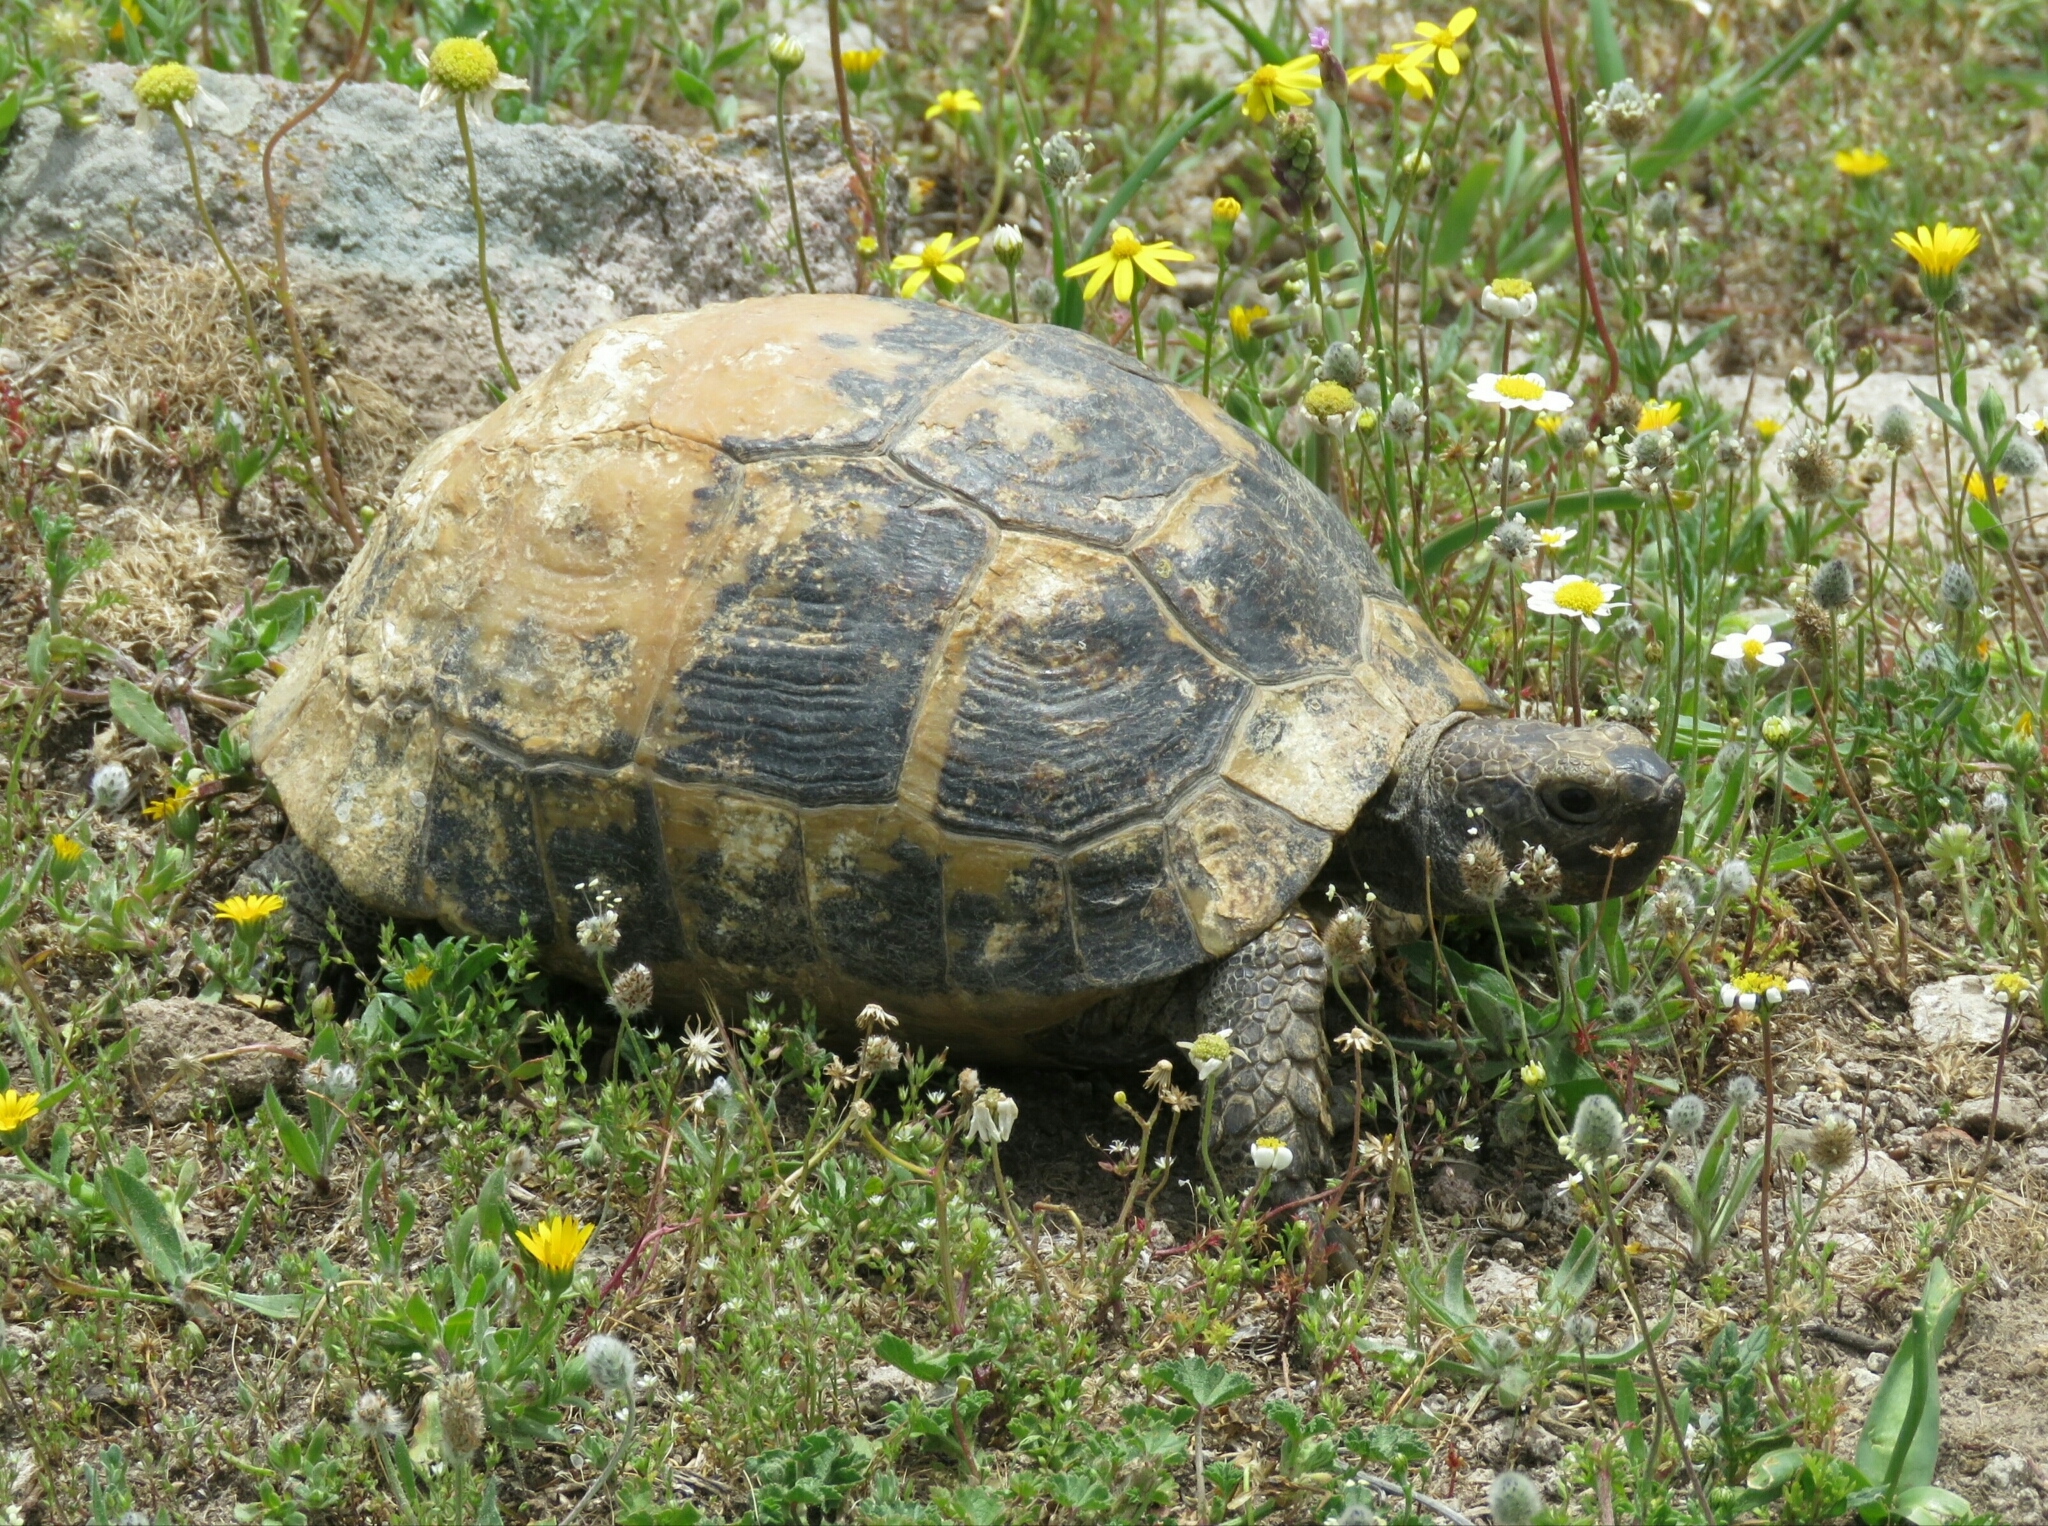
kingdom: Animalia
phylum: Chordata
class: Testudines
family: Testudinidae
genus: Testudo
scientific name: Testudo graeca
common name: Common tortoise
